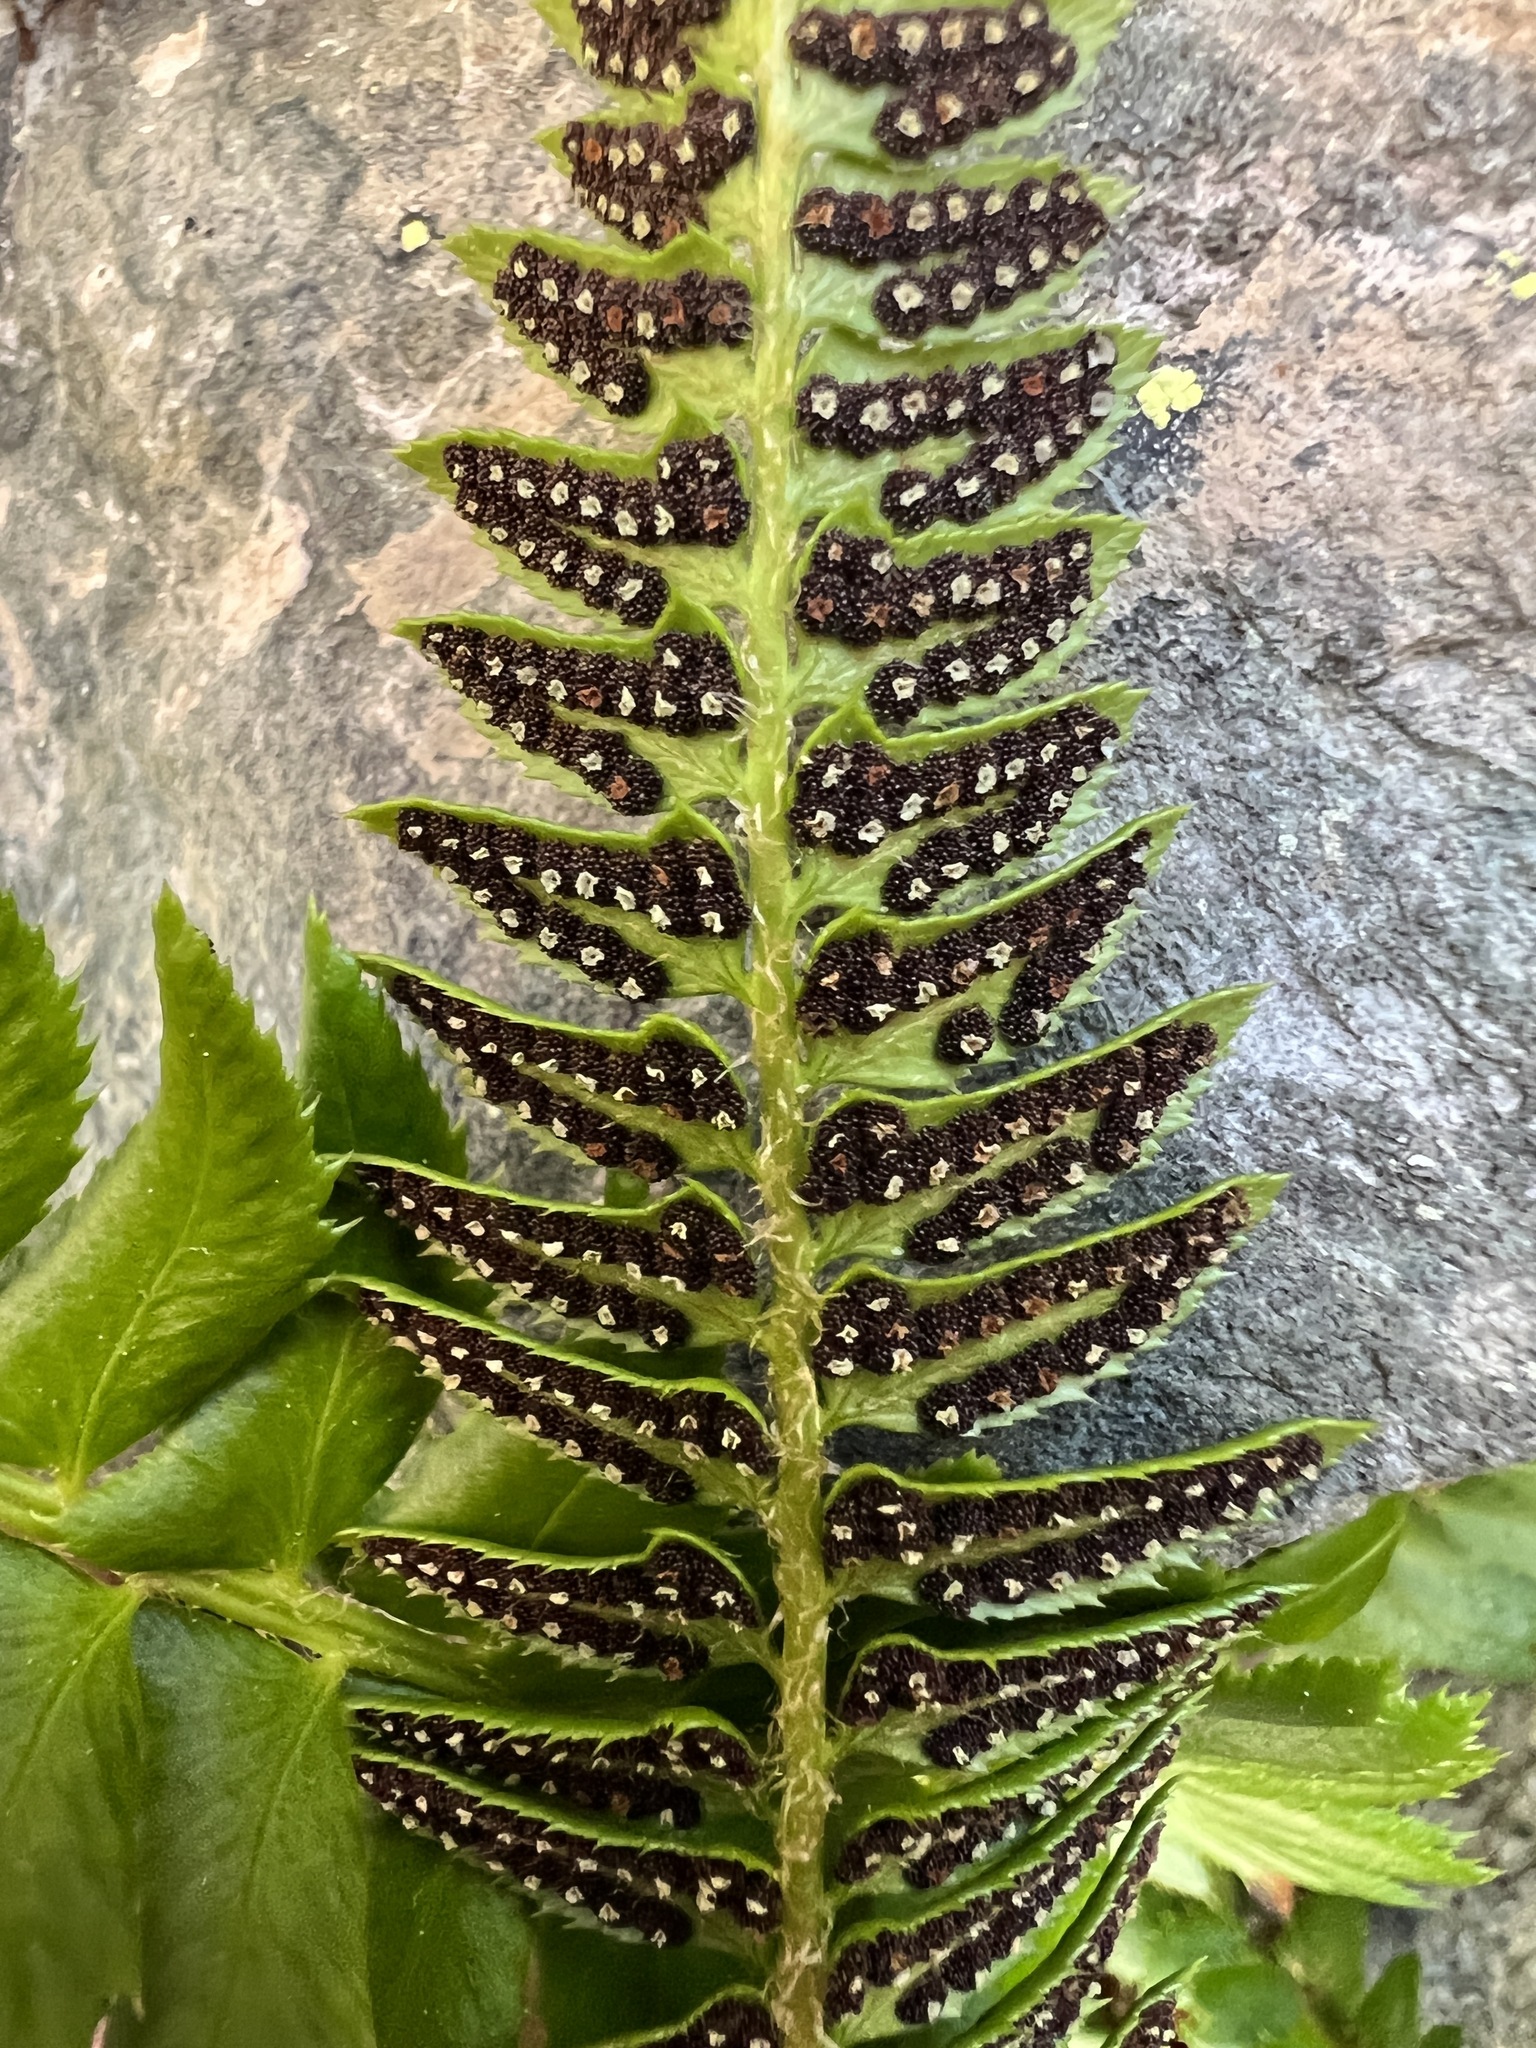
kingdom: Plantae
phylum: Tracheophyta
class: Polypodiopsida
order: Polypodiales
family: Dryopteridaceae
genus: Polystichum
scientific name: Polystichum lonchitis
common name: Holly fern
